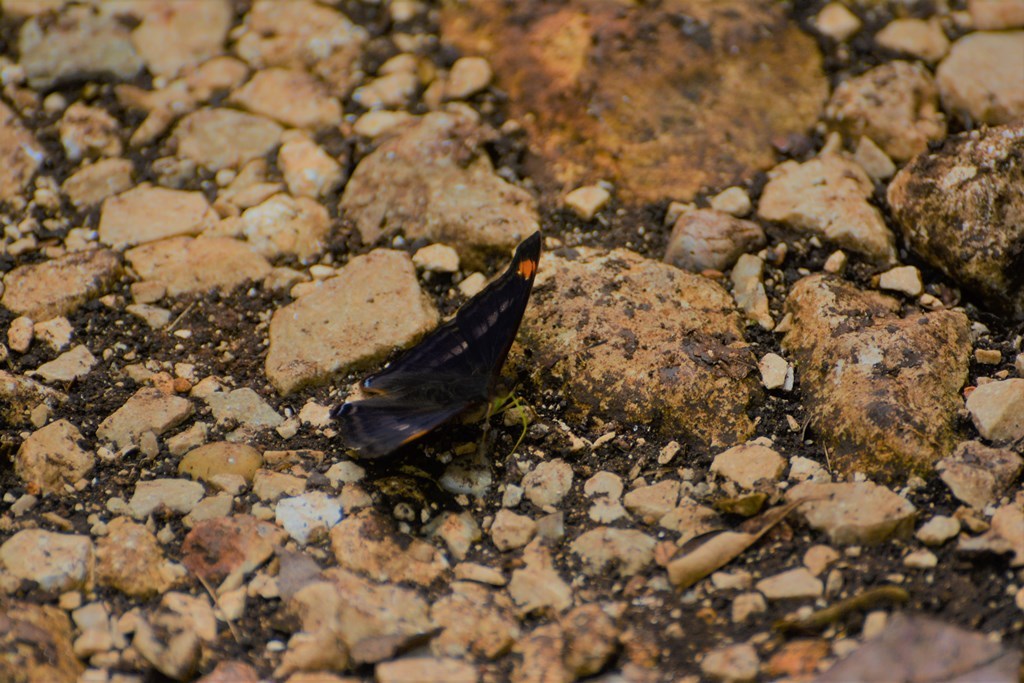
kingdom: Animalia
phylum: Arthropoda
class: Insecta
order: Lepidoptera
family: Nymphalidae
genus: Doxocopa
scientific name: Doxocopa pavonii
